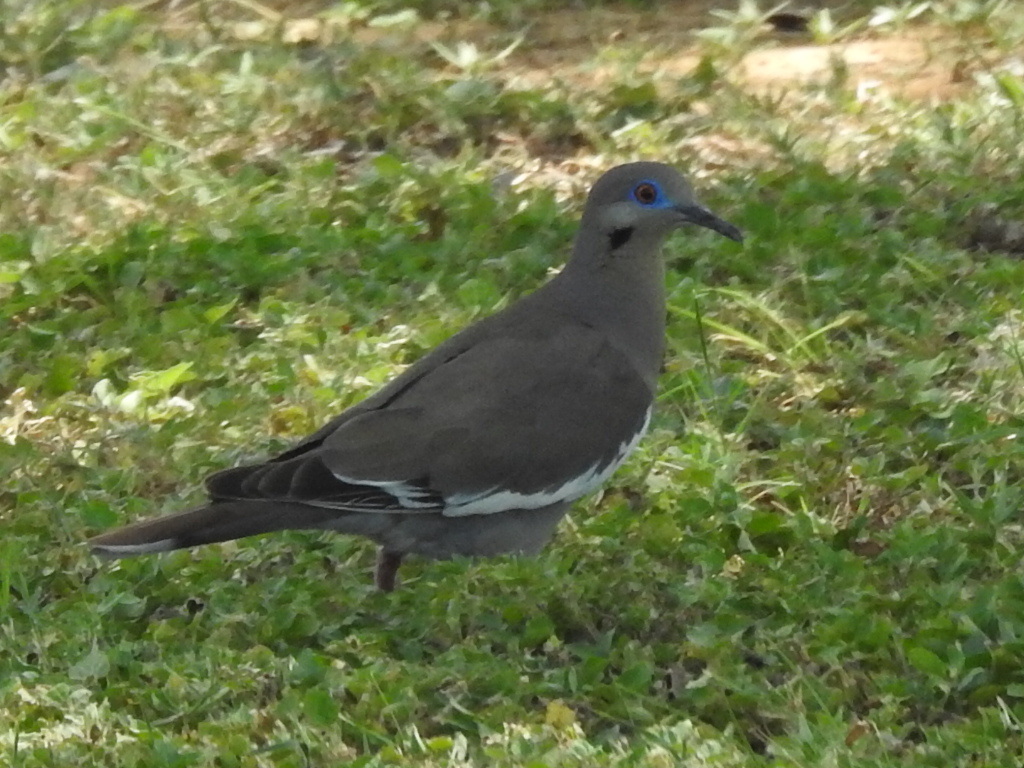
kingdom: Animalia
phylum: Chordata
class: Aves
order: Columbiformes
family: Columbidae
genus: Zenaida
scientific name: Zenaida asiatica
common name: White-winged dove
